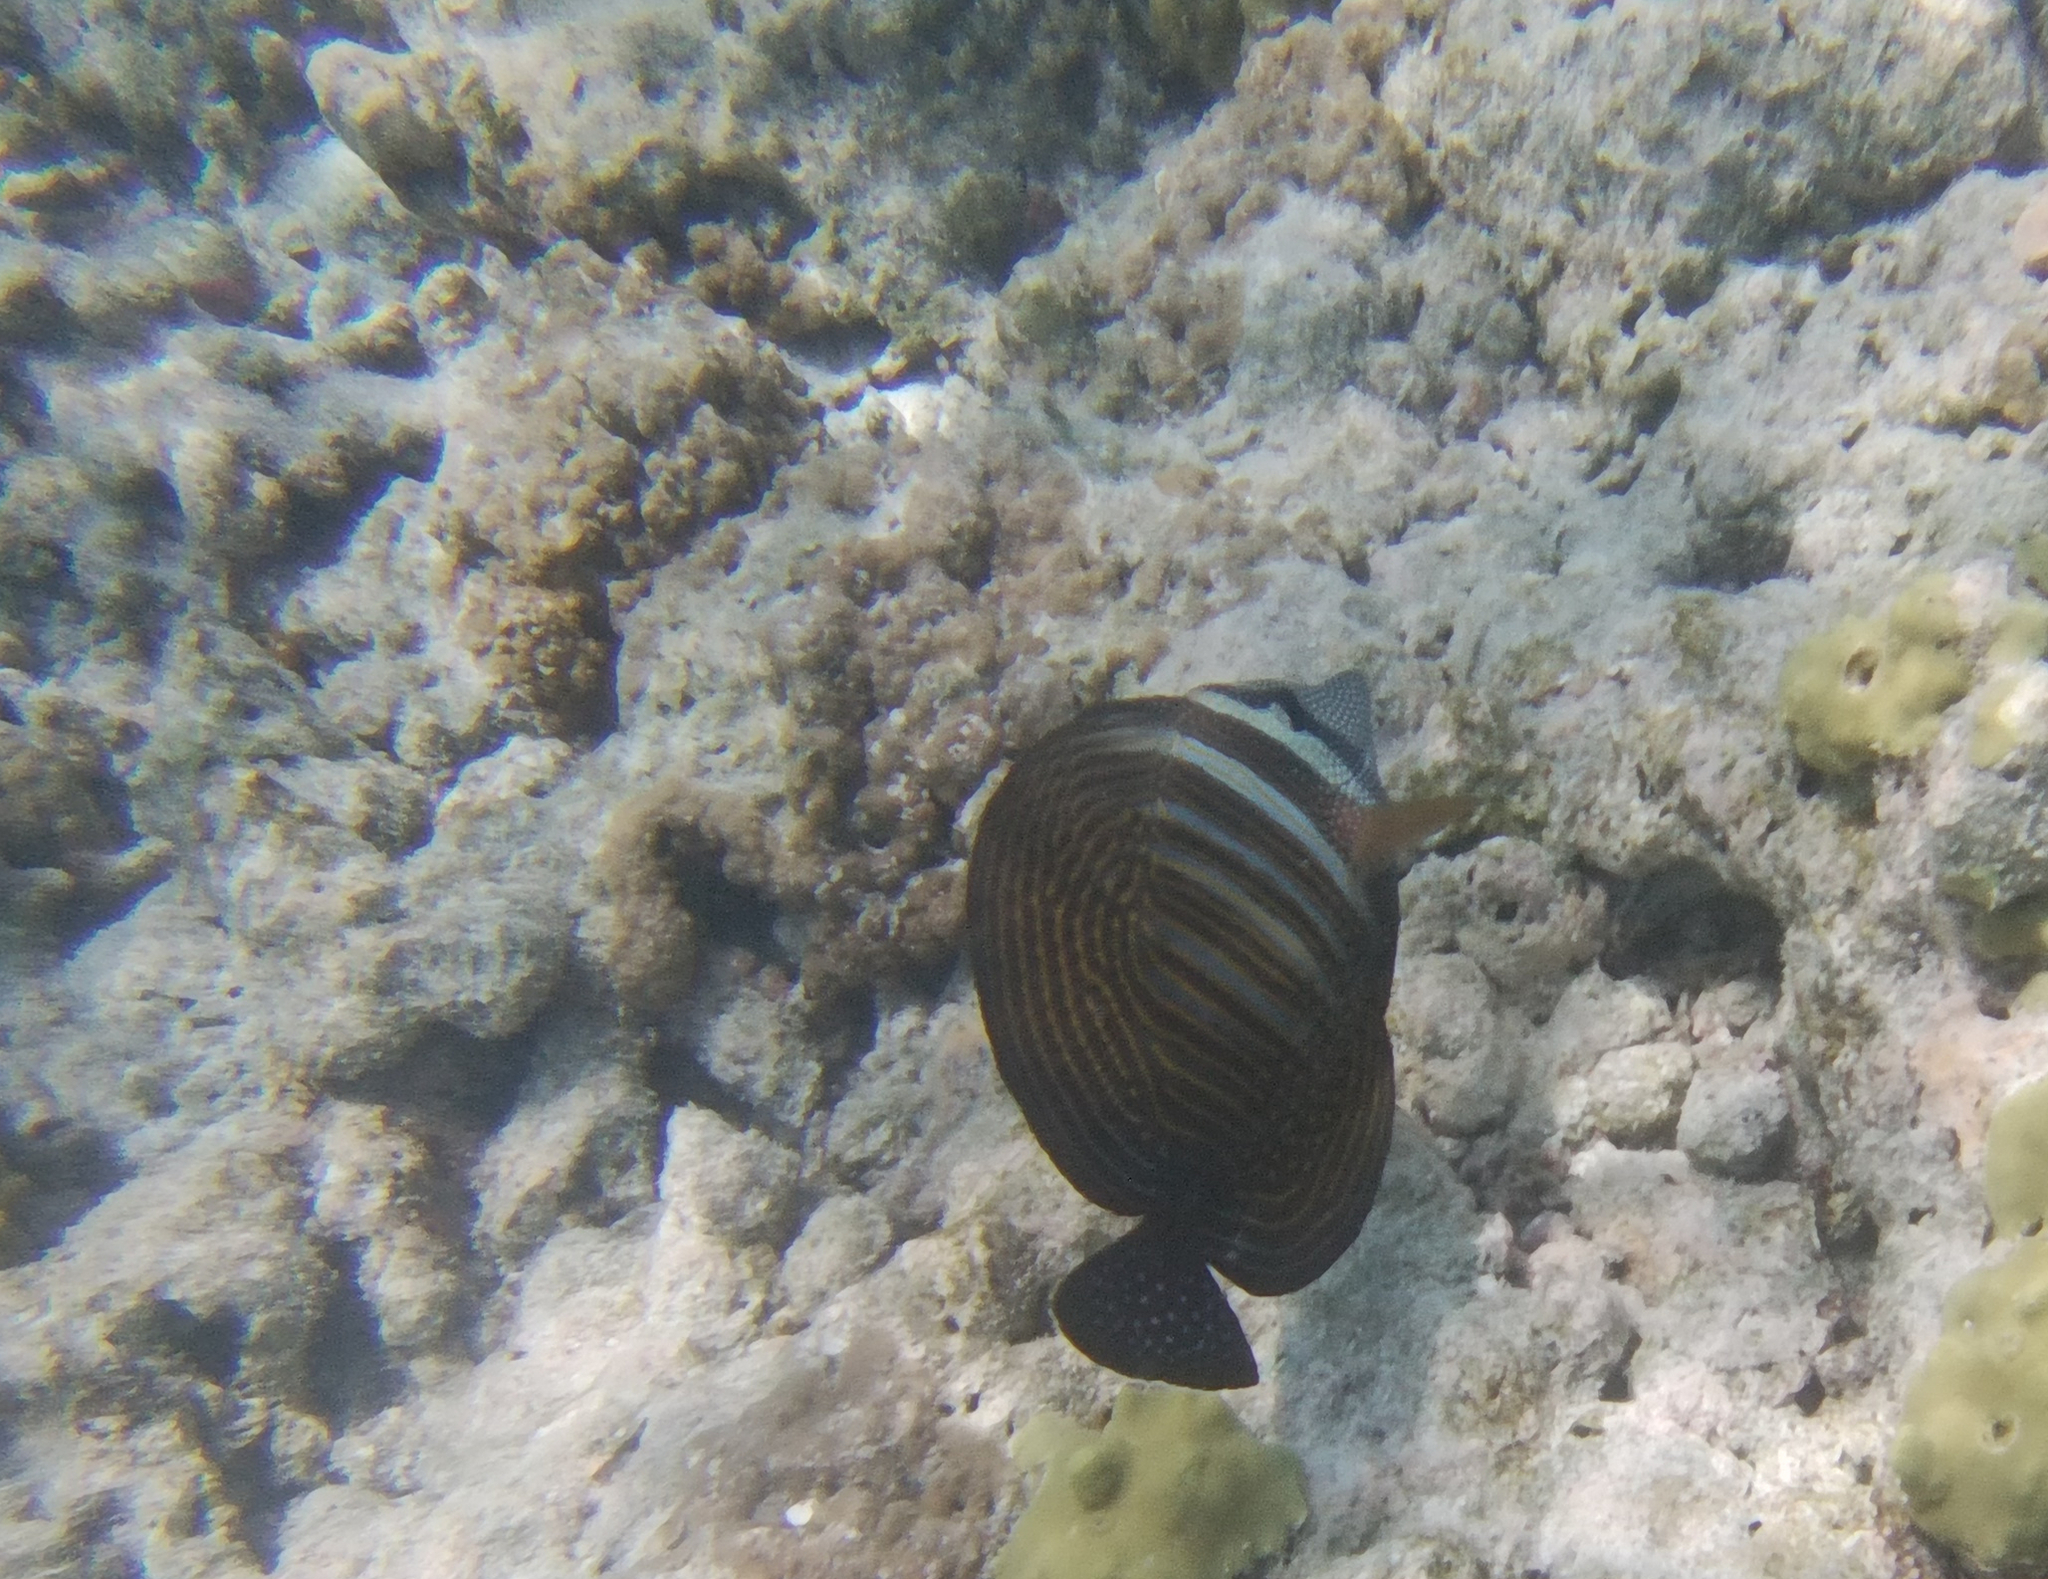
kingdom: Animalia
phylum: Chordata
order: Perciformes
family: Acanthuridae
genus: Zebrasoma
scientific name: Zebrasoma desjardinii
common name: Desjardin's sailfin tang
